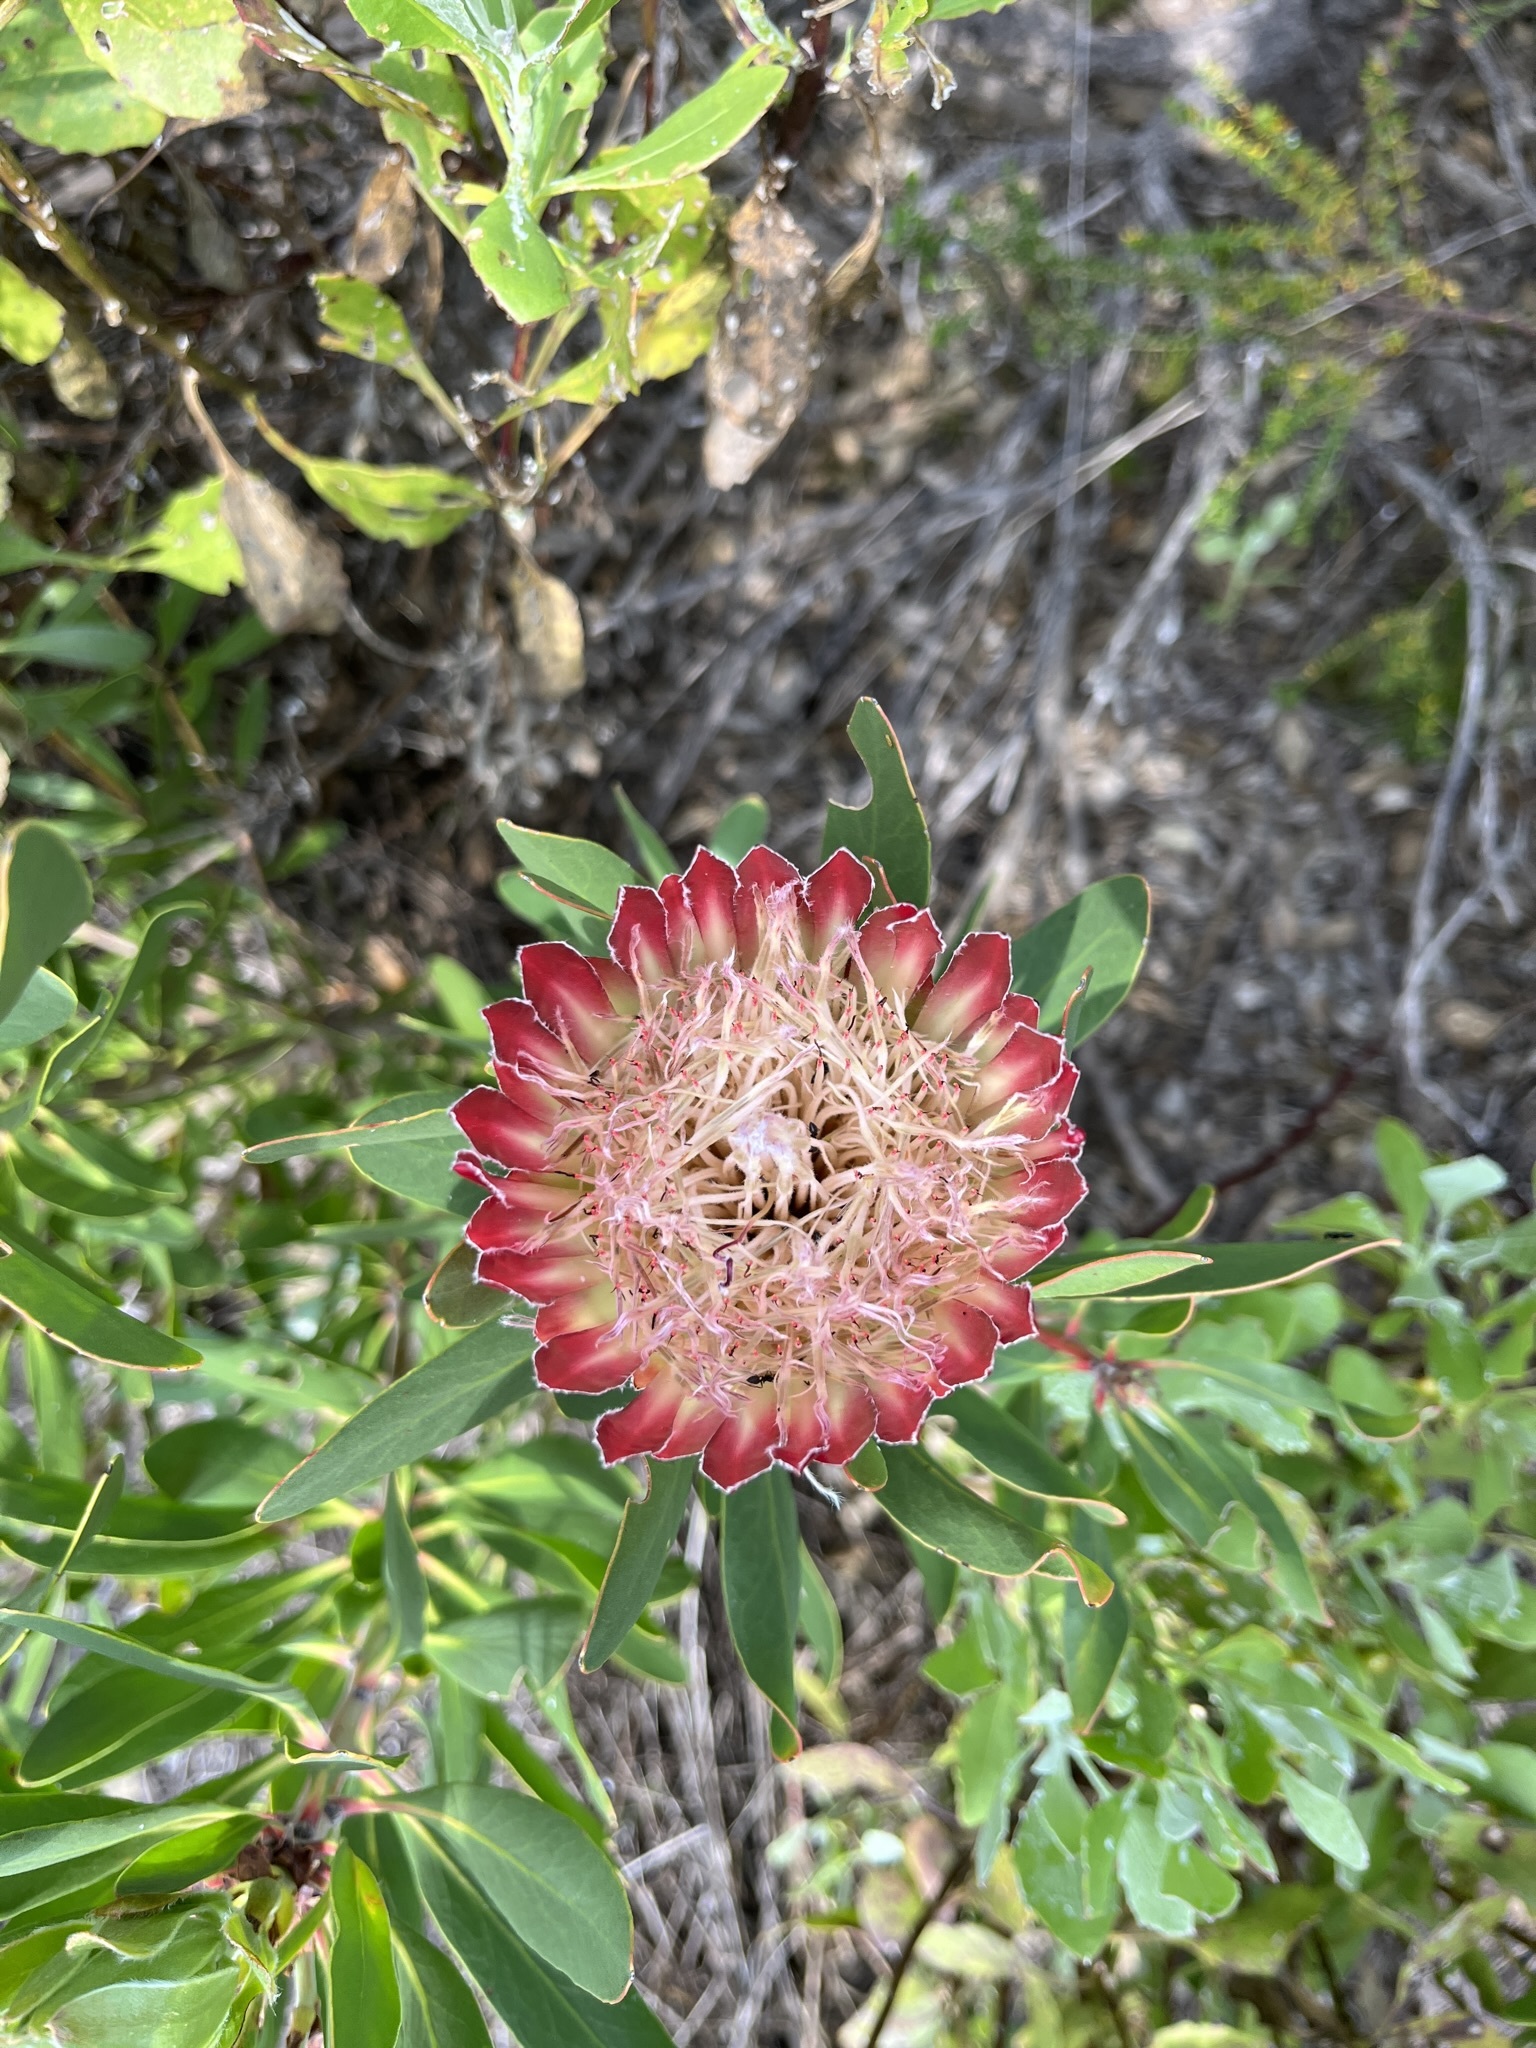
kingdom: Plantae
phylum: Tracheophyta
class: Magnoliopsida
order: Proteales
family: Proteaceae
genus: Protea
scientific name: Protea obtusifolia
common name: Bredasdorp sugarbush
